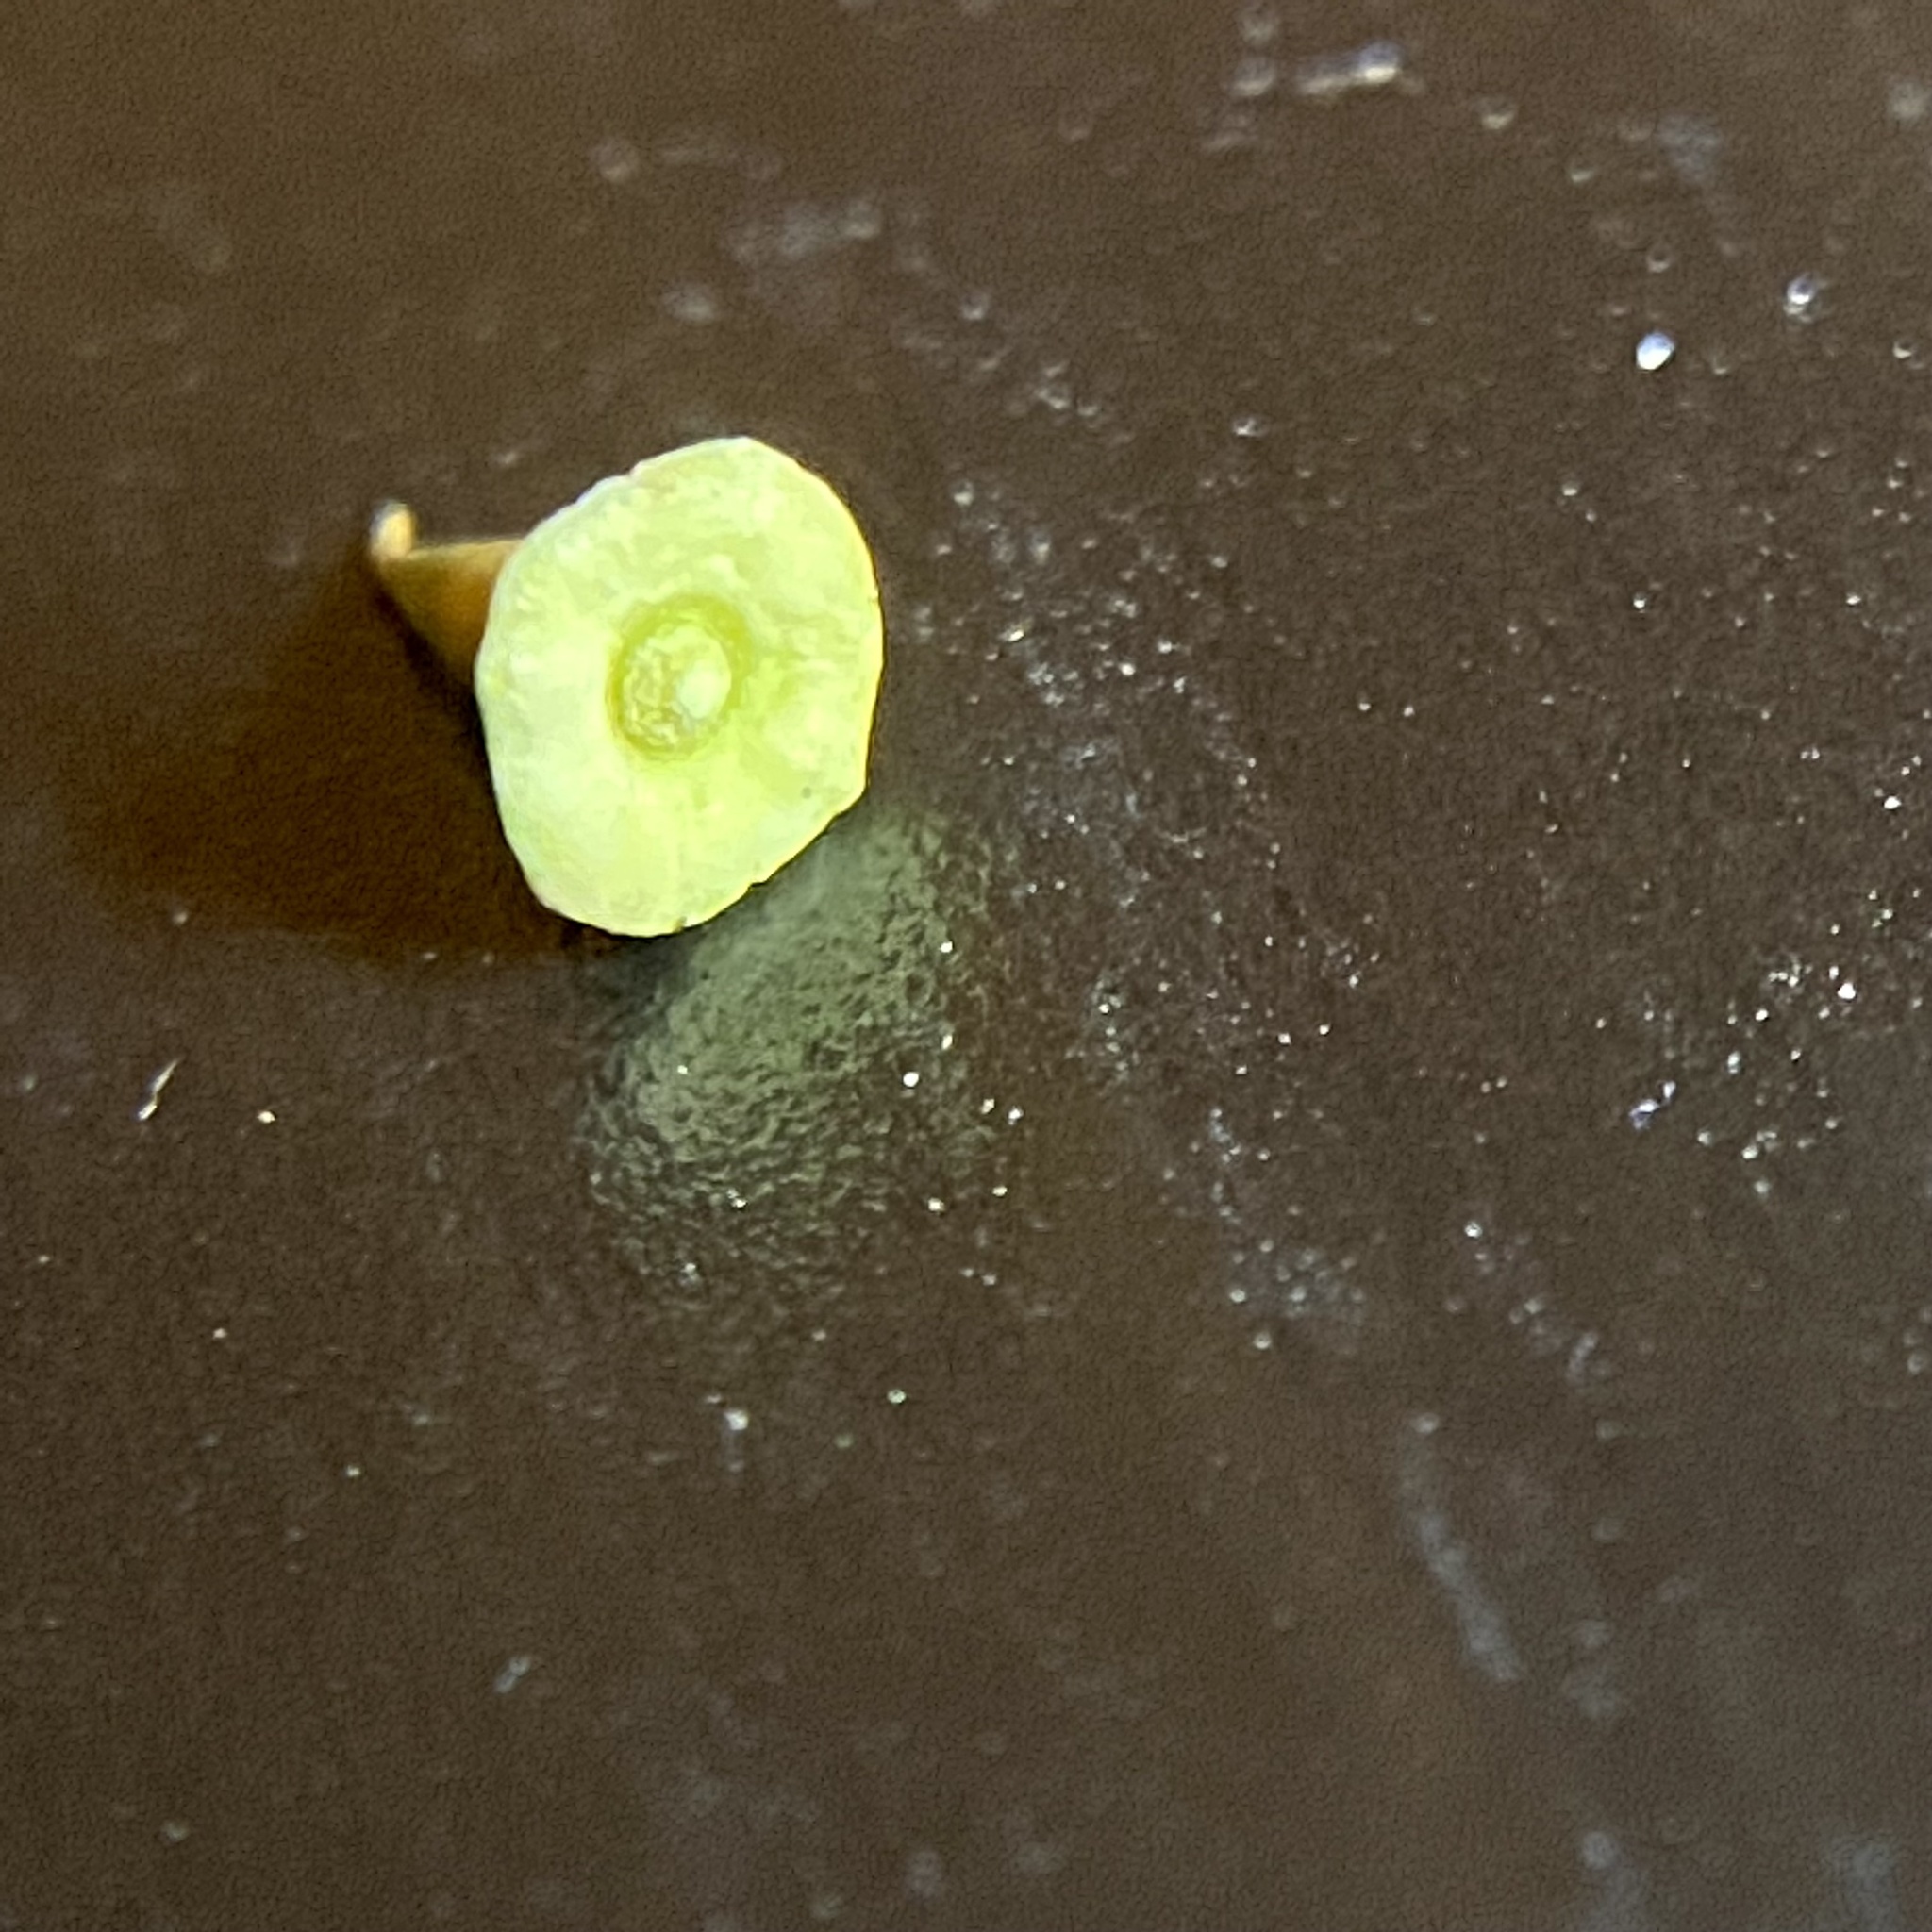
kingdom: Animalia
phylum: Arthropoda
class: Insecta
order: Diptera
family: Cecidomyiidae
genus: Celticecis
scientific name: Celticecis spiniformis
